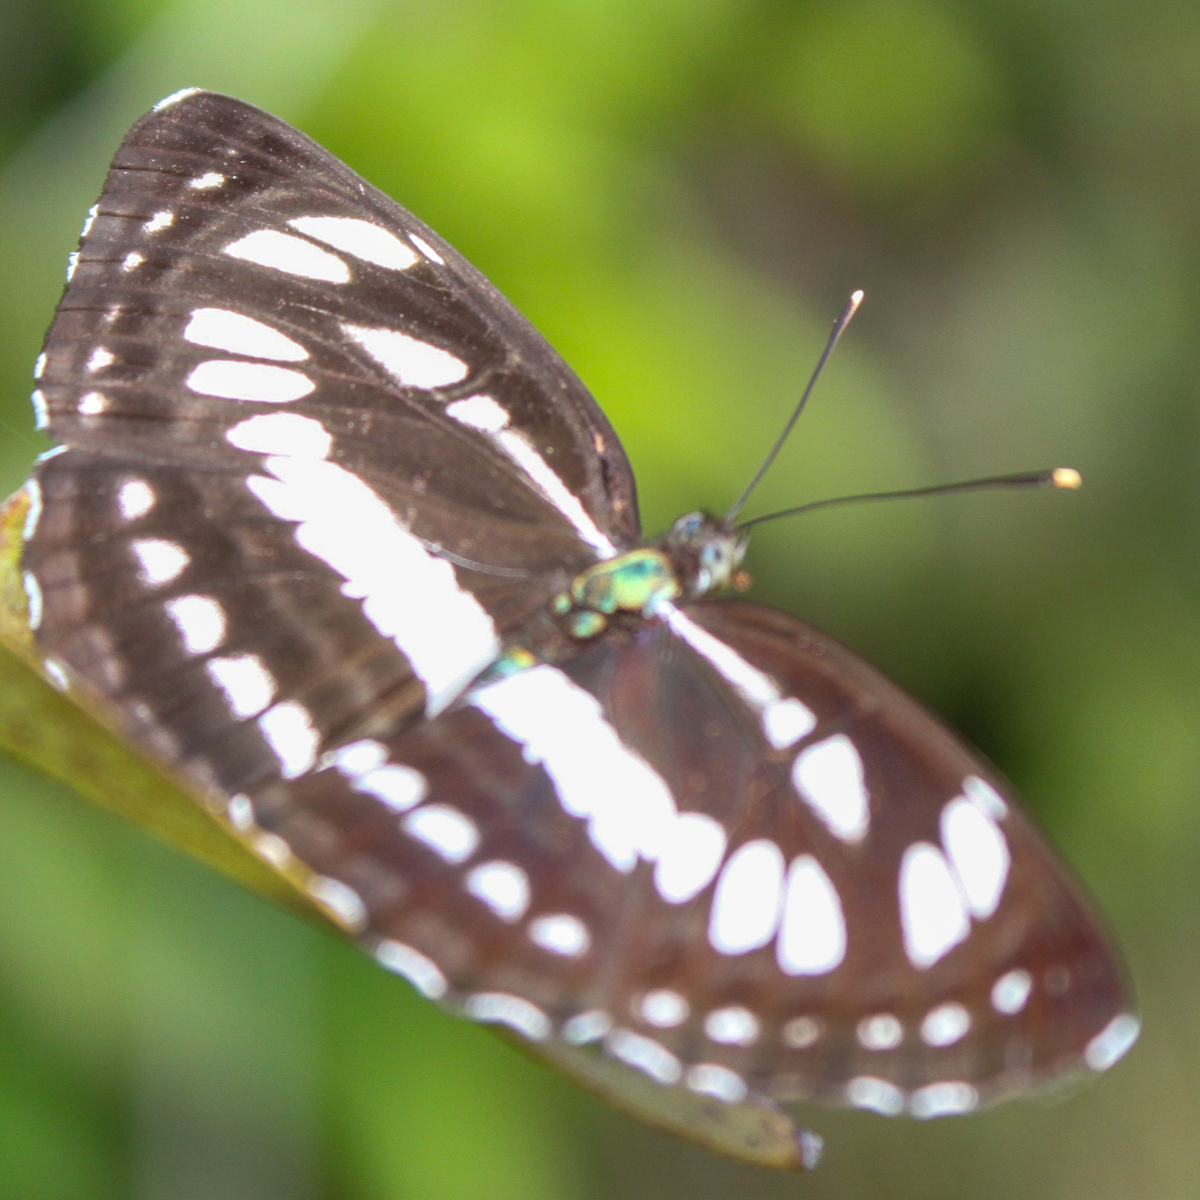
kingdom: Animalia
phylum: Arthropoda
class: Insecta
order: Lepidoptera
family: Nymphalidae
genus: Neptis
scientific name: Neptis hylas
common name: Common sailer
